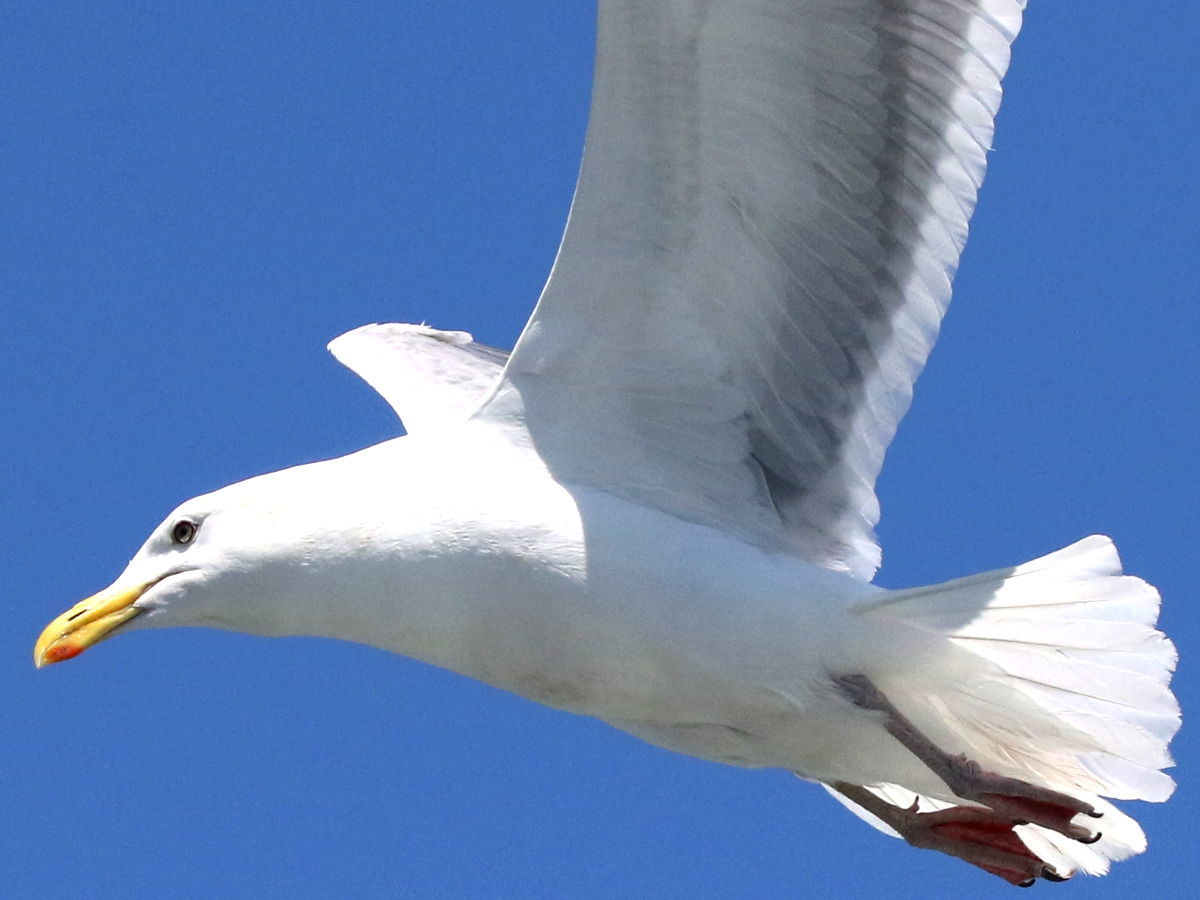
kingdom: Animalia
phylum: Chordata
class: Aves
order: Charadriiformes
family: Laridae
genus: Larus
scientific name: Larus glaucescens
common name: Glaucous-winged gull
